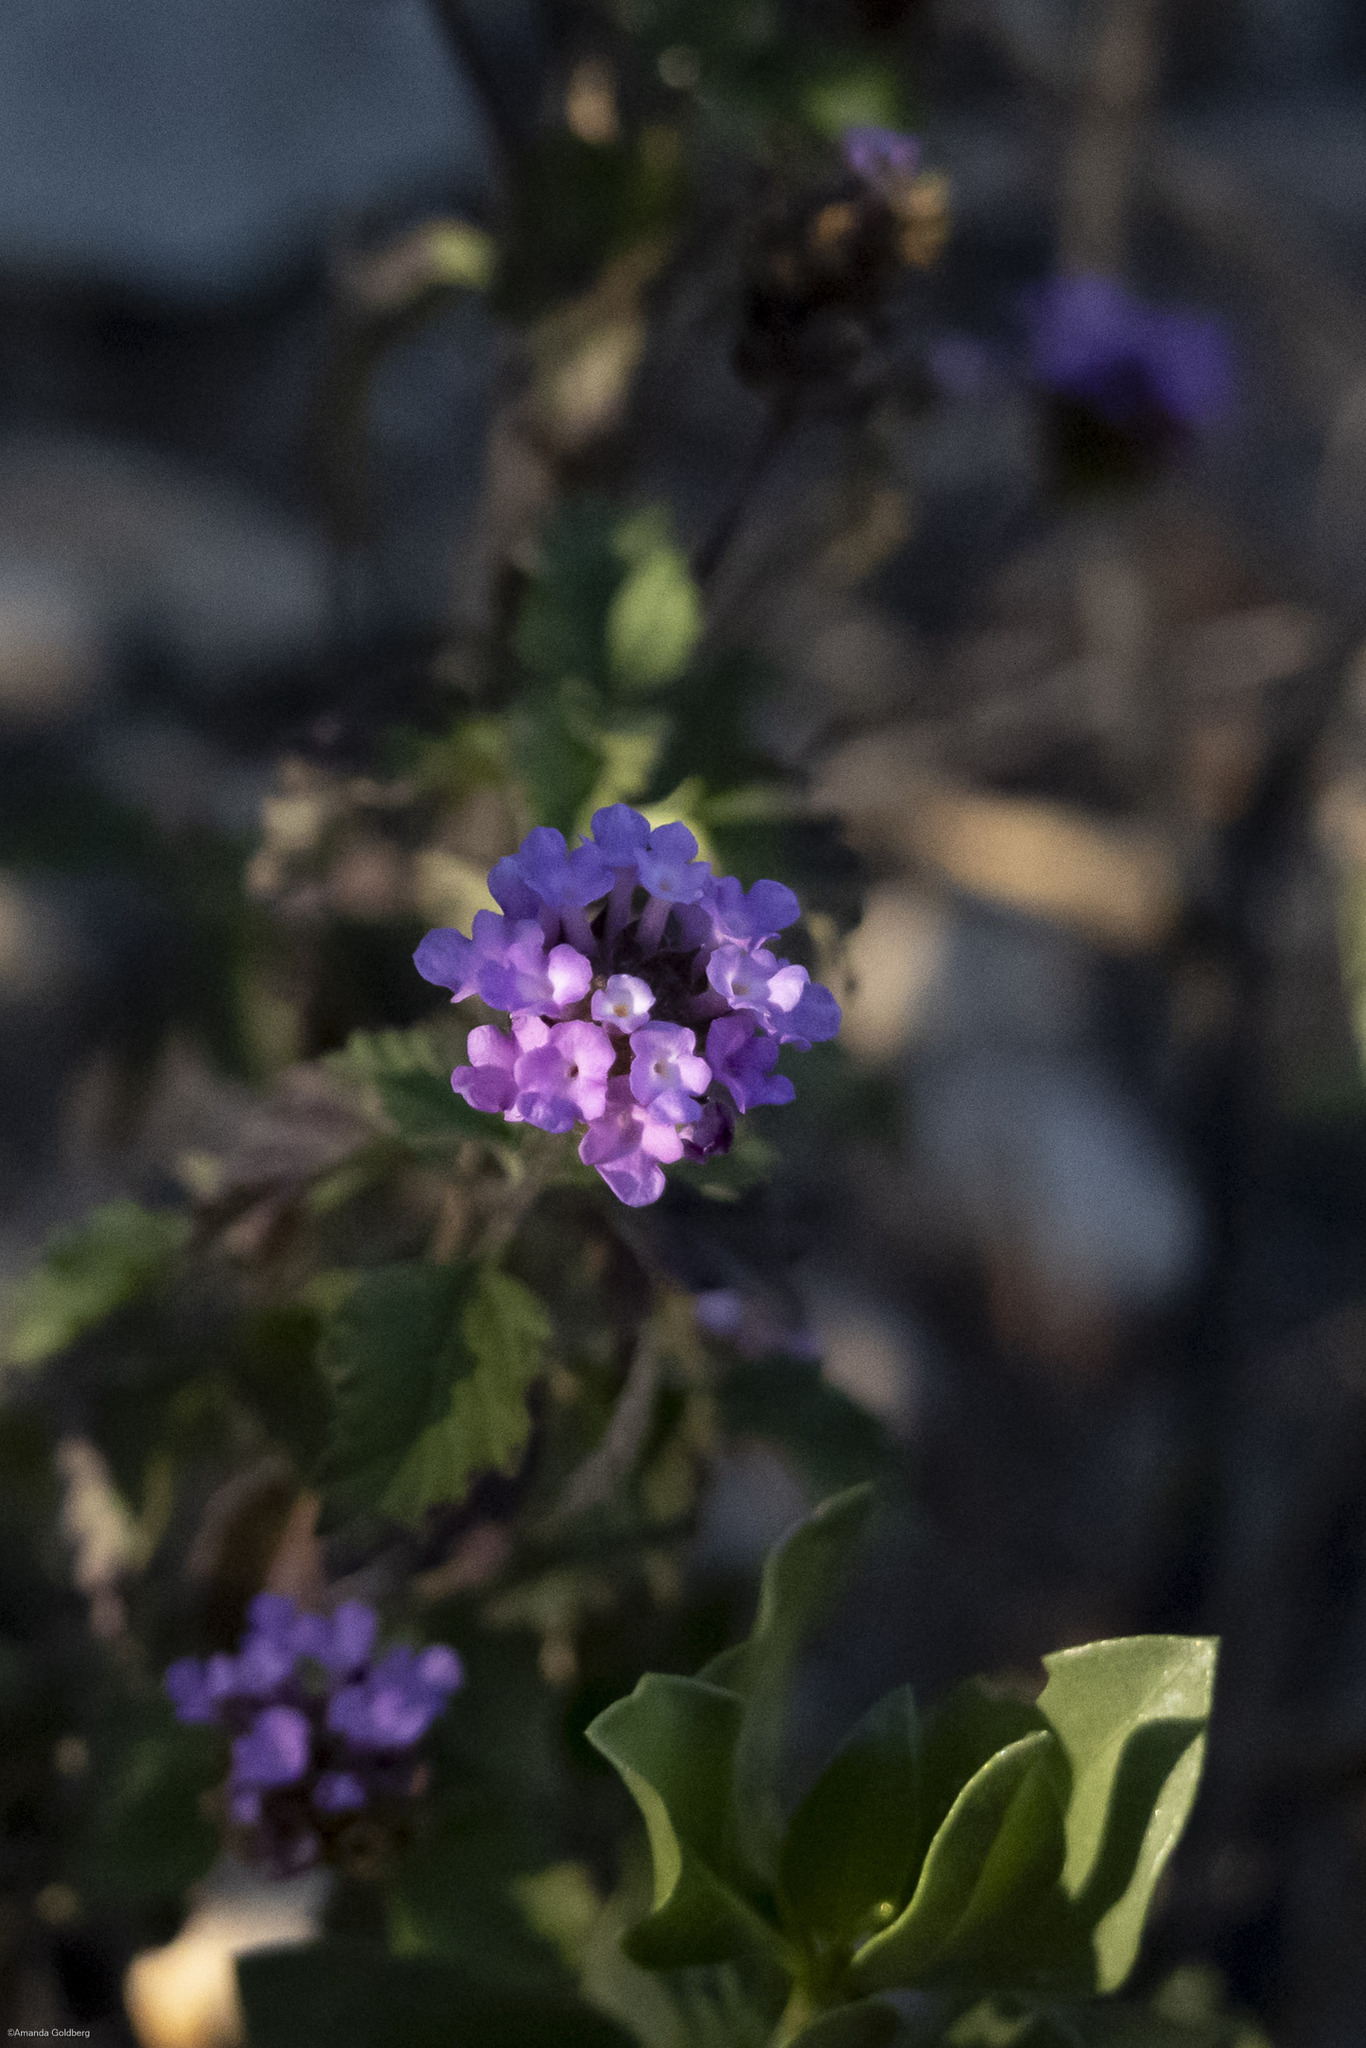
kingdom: Plantae
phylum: Tracheophyta
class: Magnoliopsida
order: Lamiales
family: Verbenaceae
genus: Lantana
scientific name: Lantana achyranthifolia
